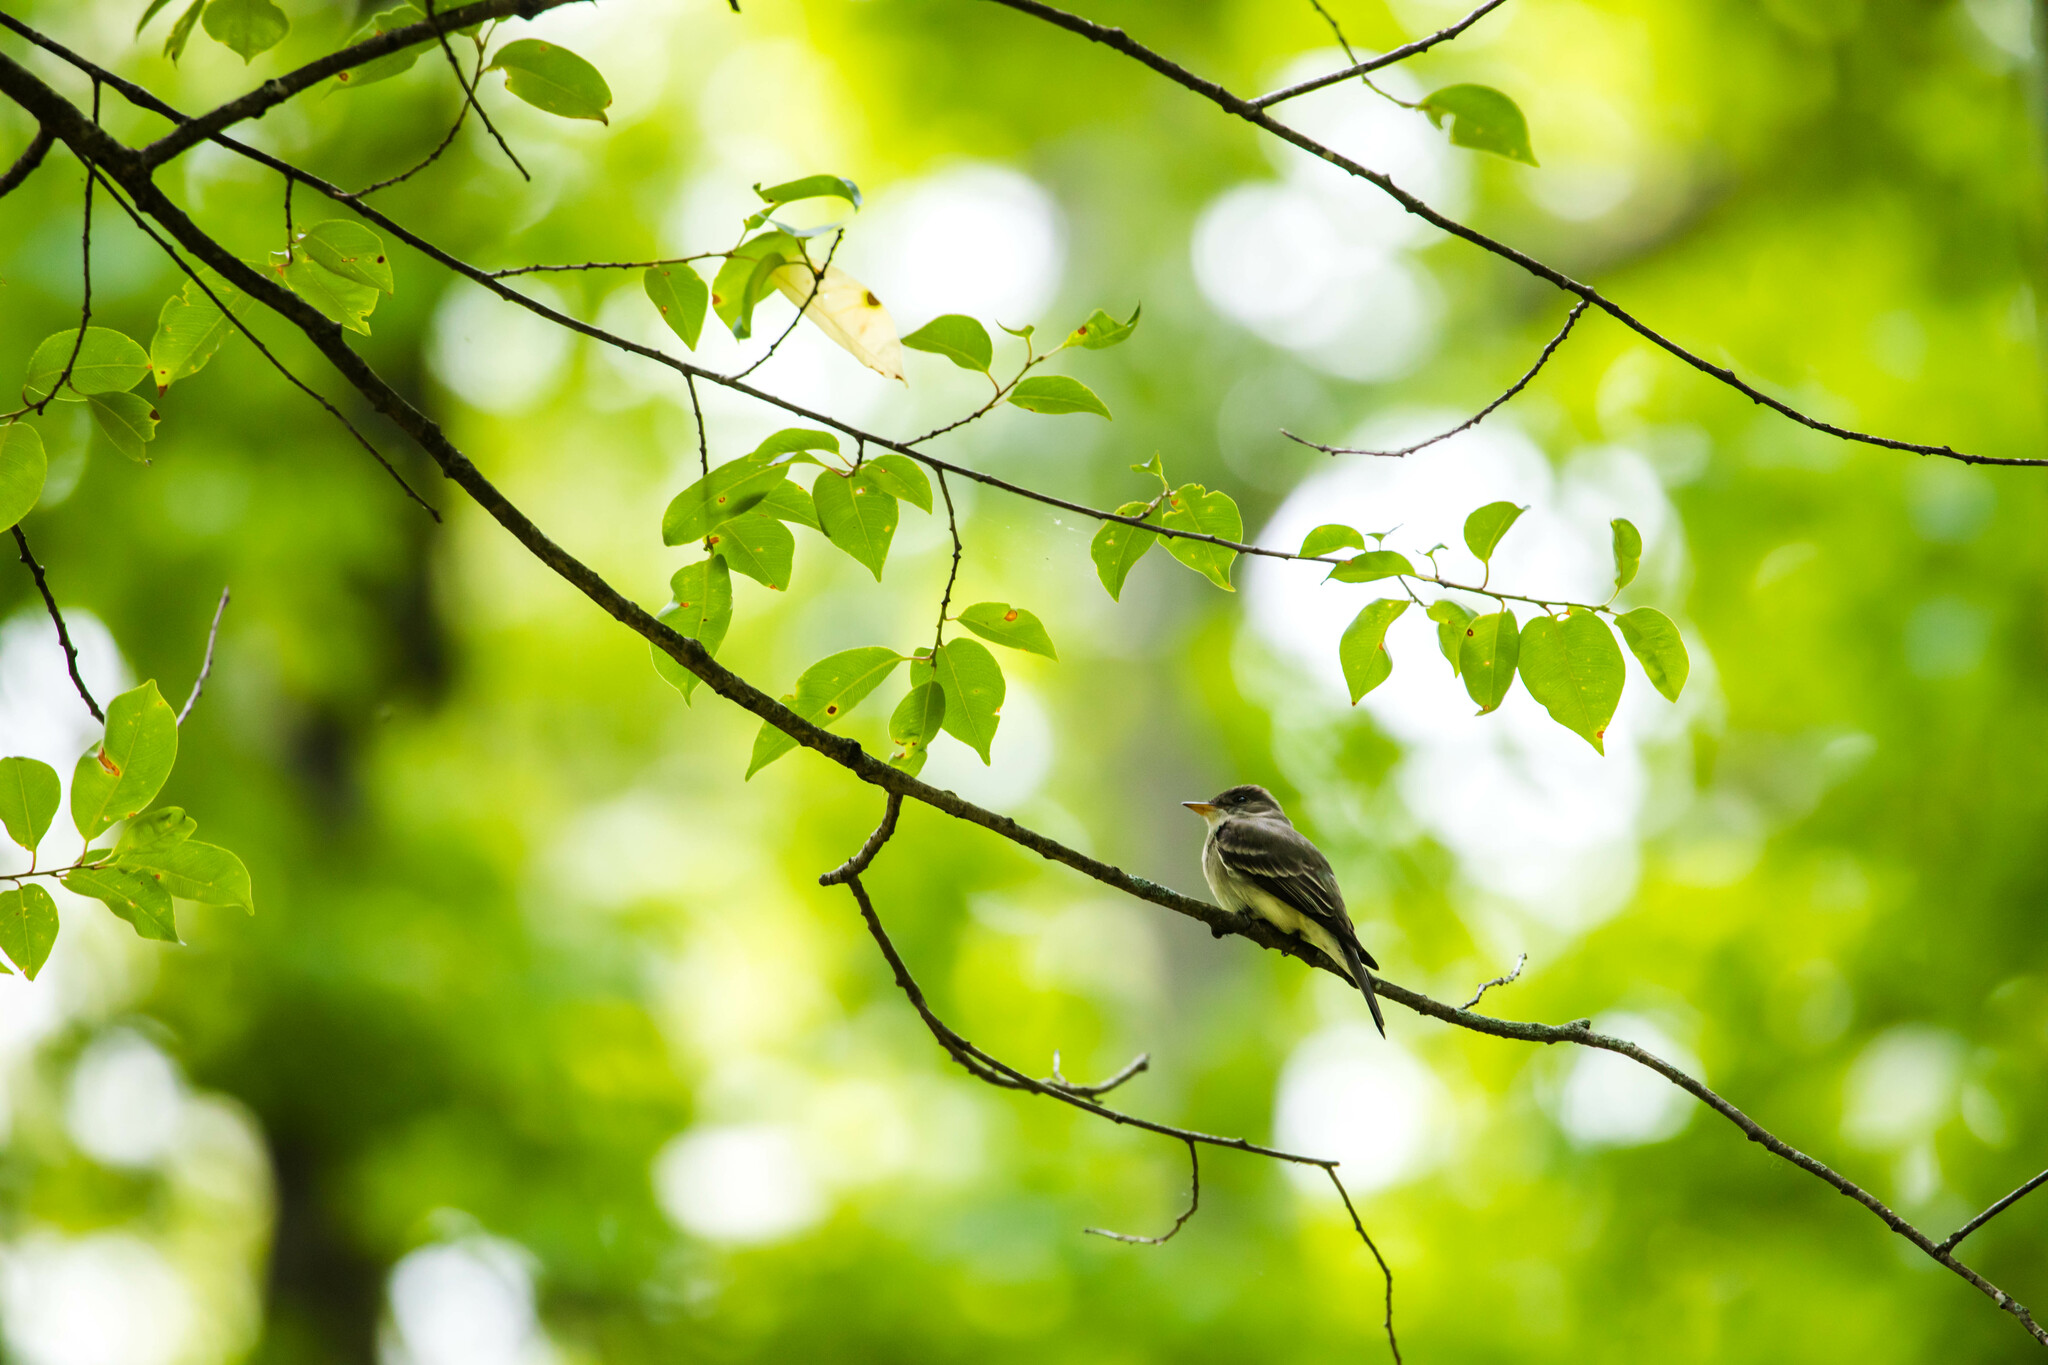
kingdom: Animalia
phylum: Chordata
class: Aves
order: Passeriformes
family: Tyrannidae
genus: Contopus
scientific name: Contopus virens
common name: Eastern wood-pewee
